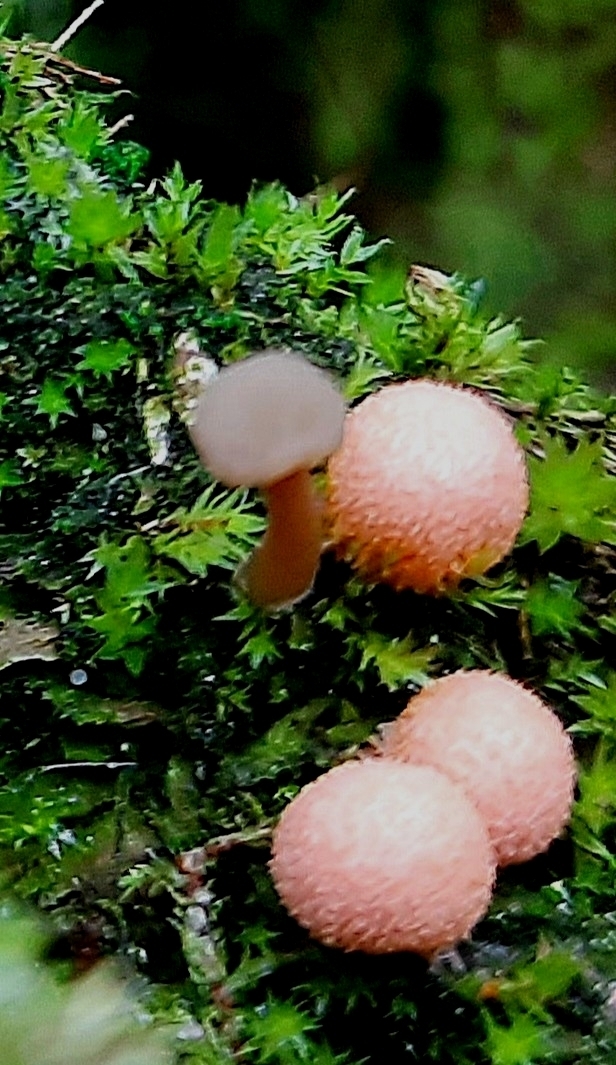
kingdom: Protozoa
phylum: Mycetozoa
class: Myxomycetes
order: Cribrariales
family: Tubiferaceae
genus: Lycogala
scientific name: Lycogala epidendrum
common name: Wolf's milk
